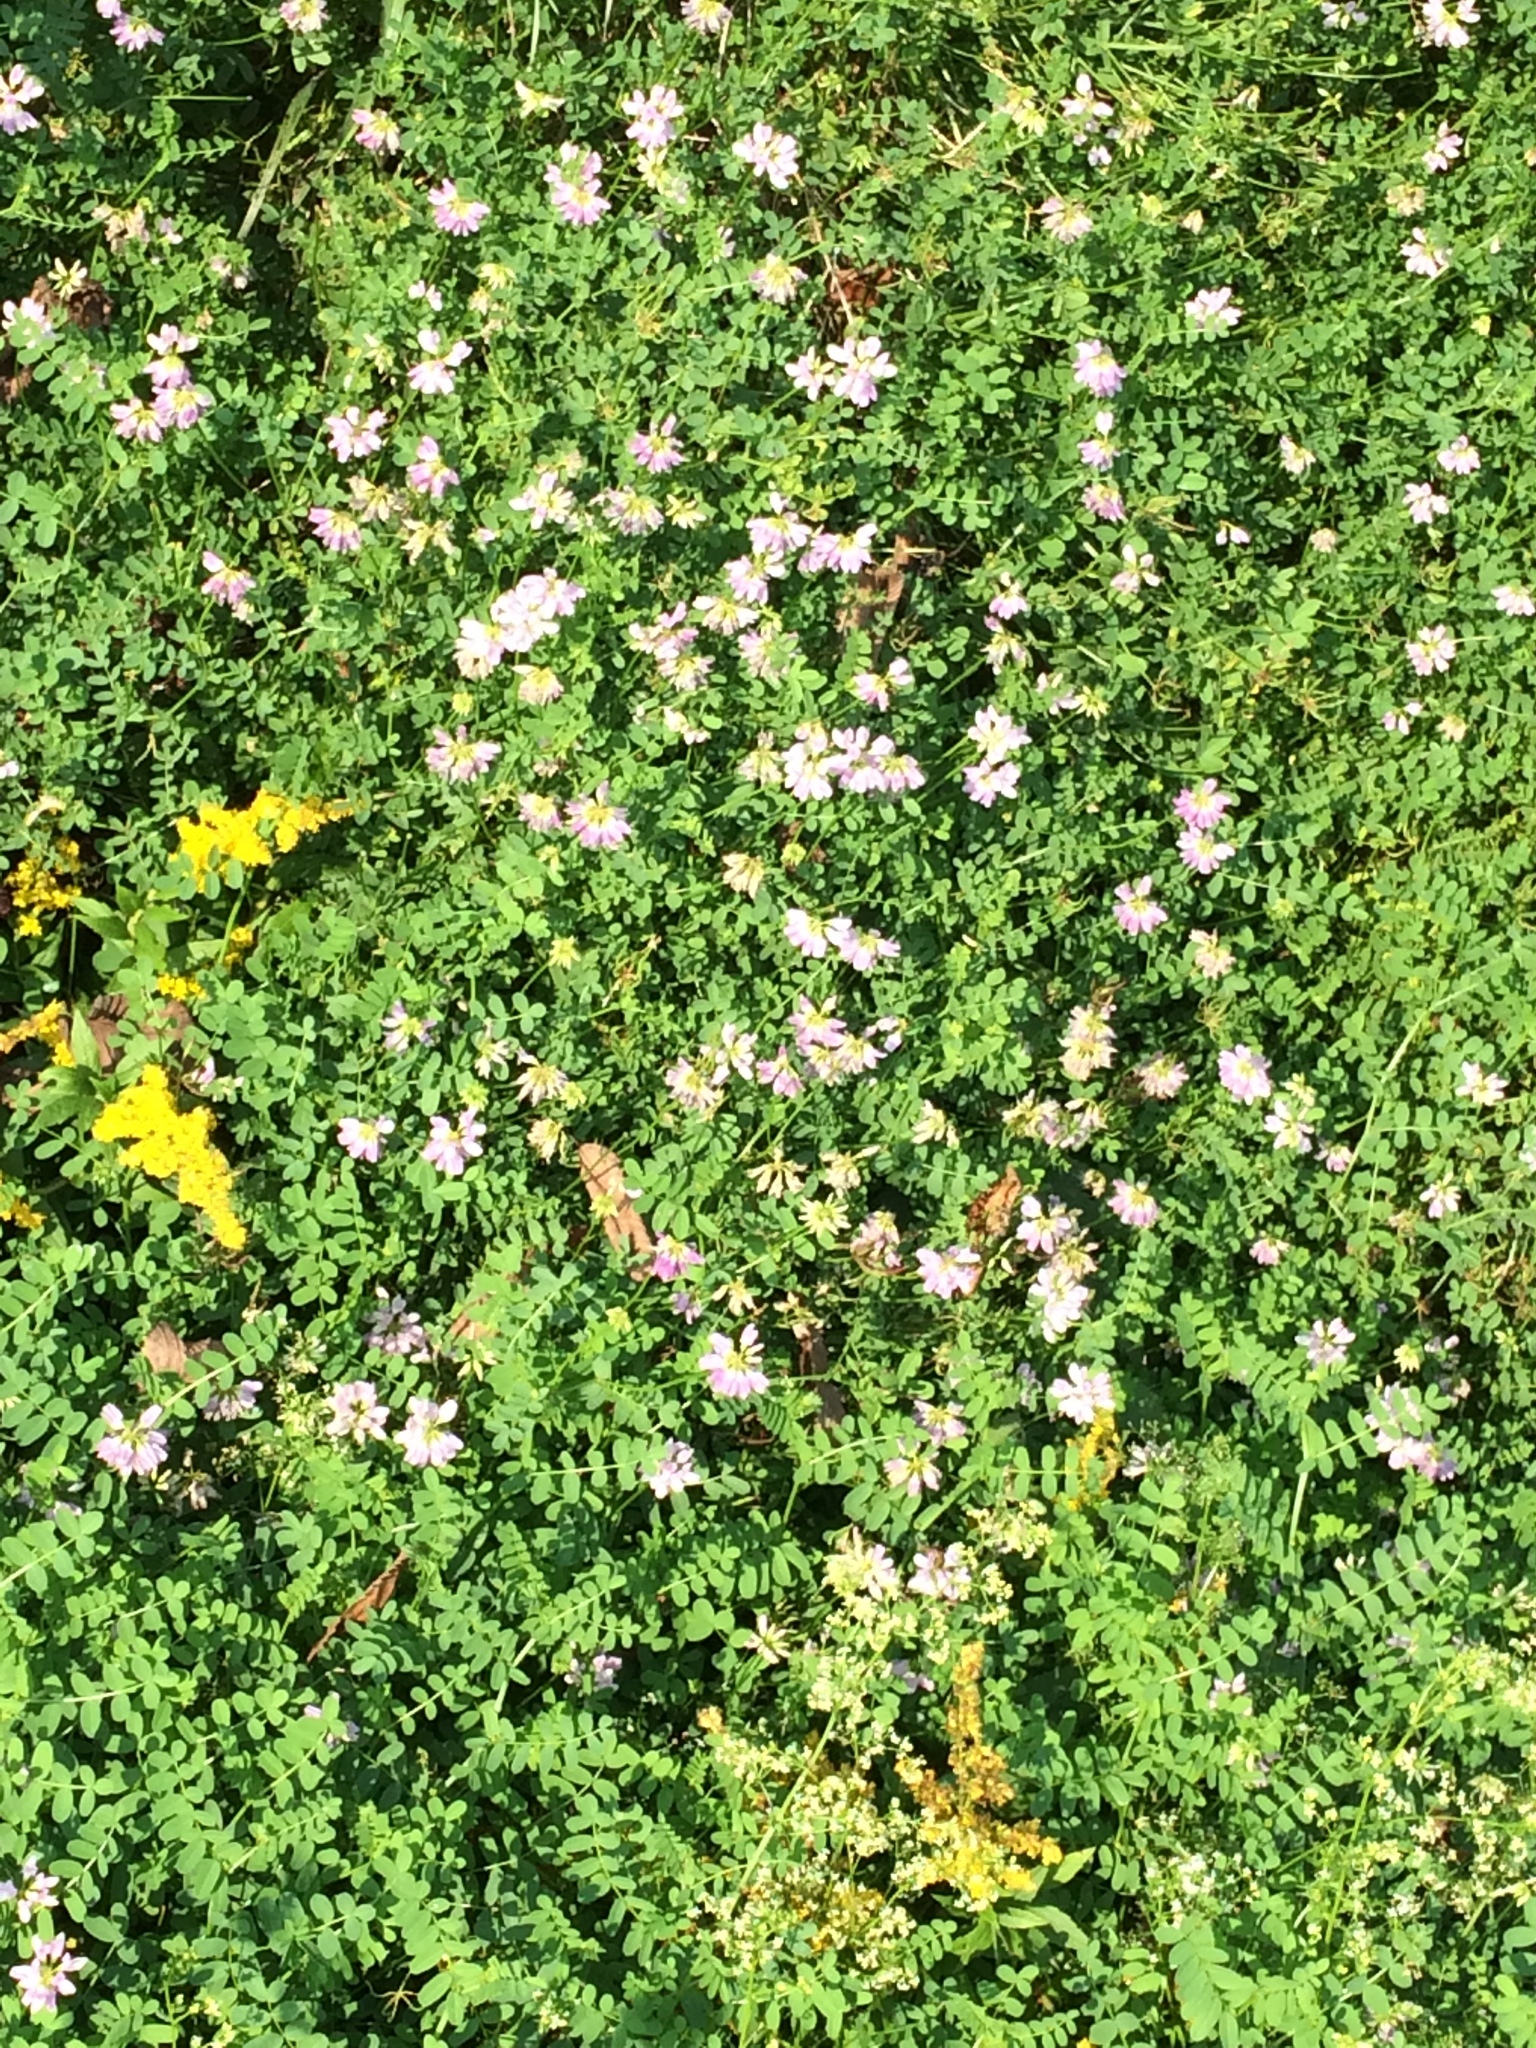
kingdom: Plantae
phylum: Tracheophyta
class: Magnoliopsida
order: Fabales
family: Fabaceae
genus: Coronilla
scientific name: Coronilla varia
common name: Crownvetch
